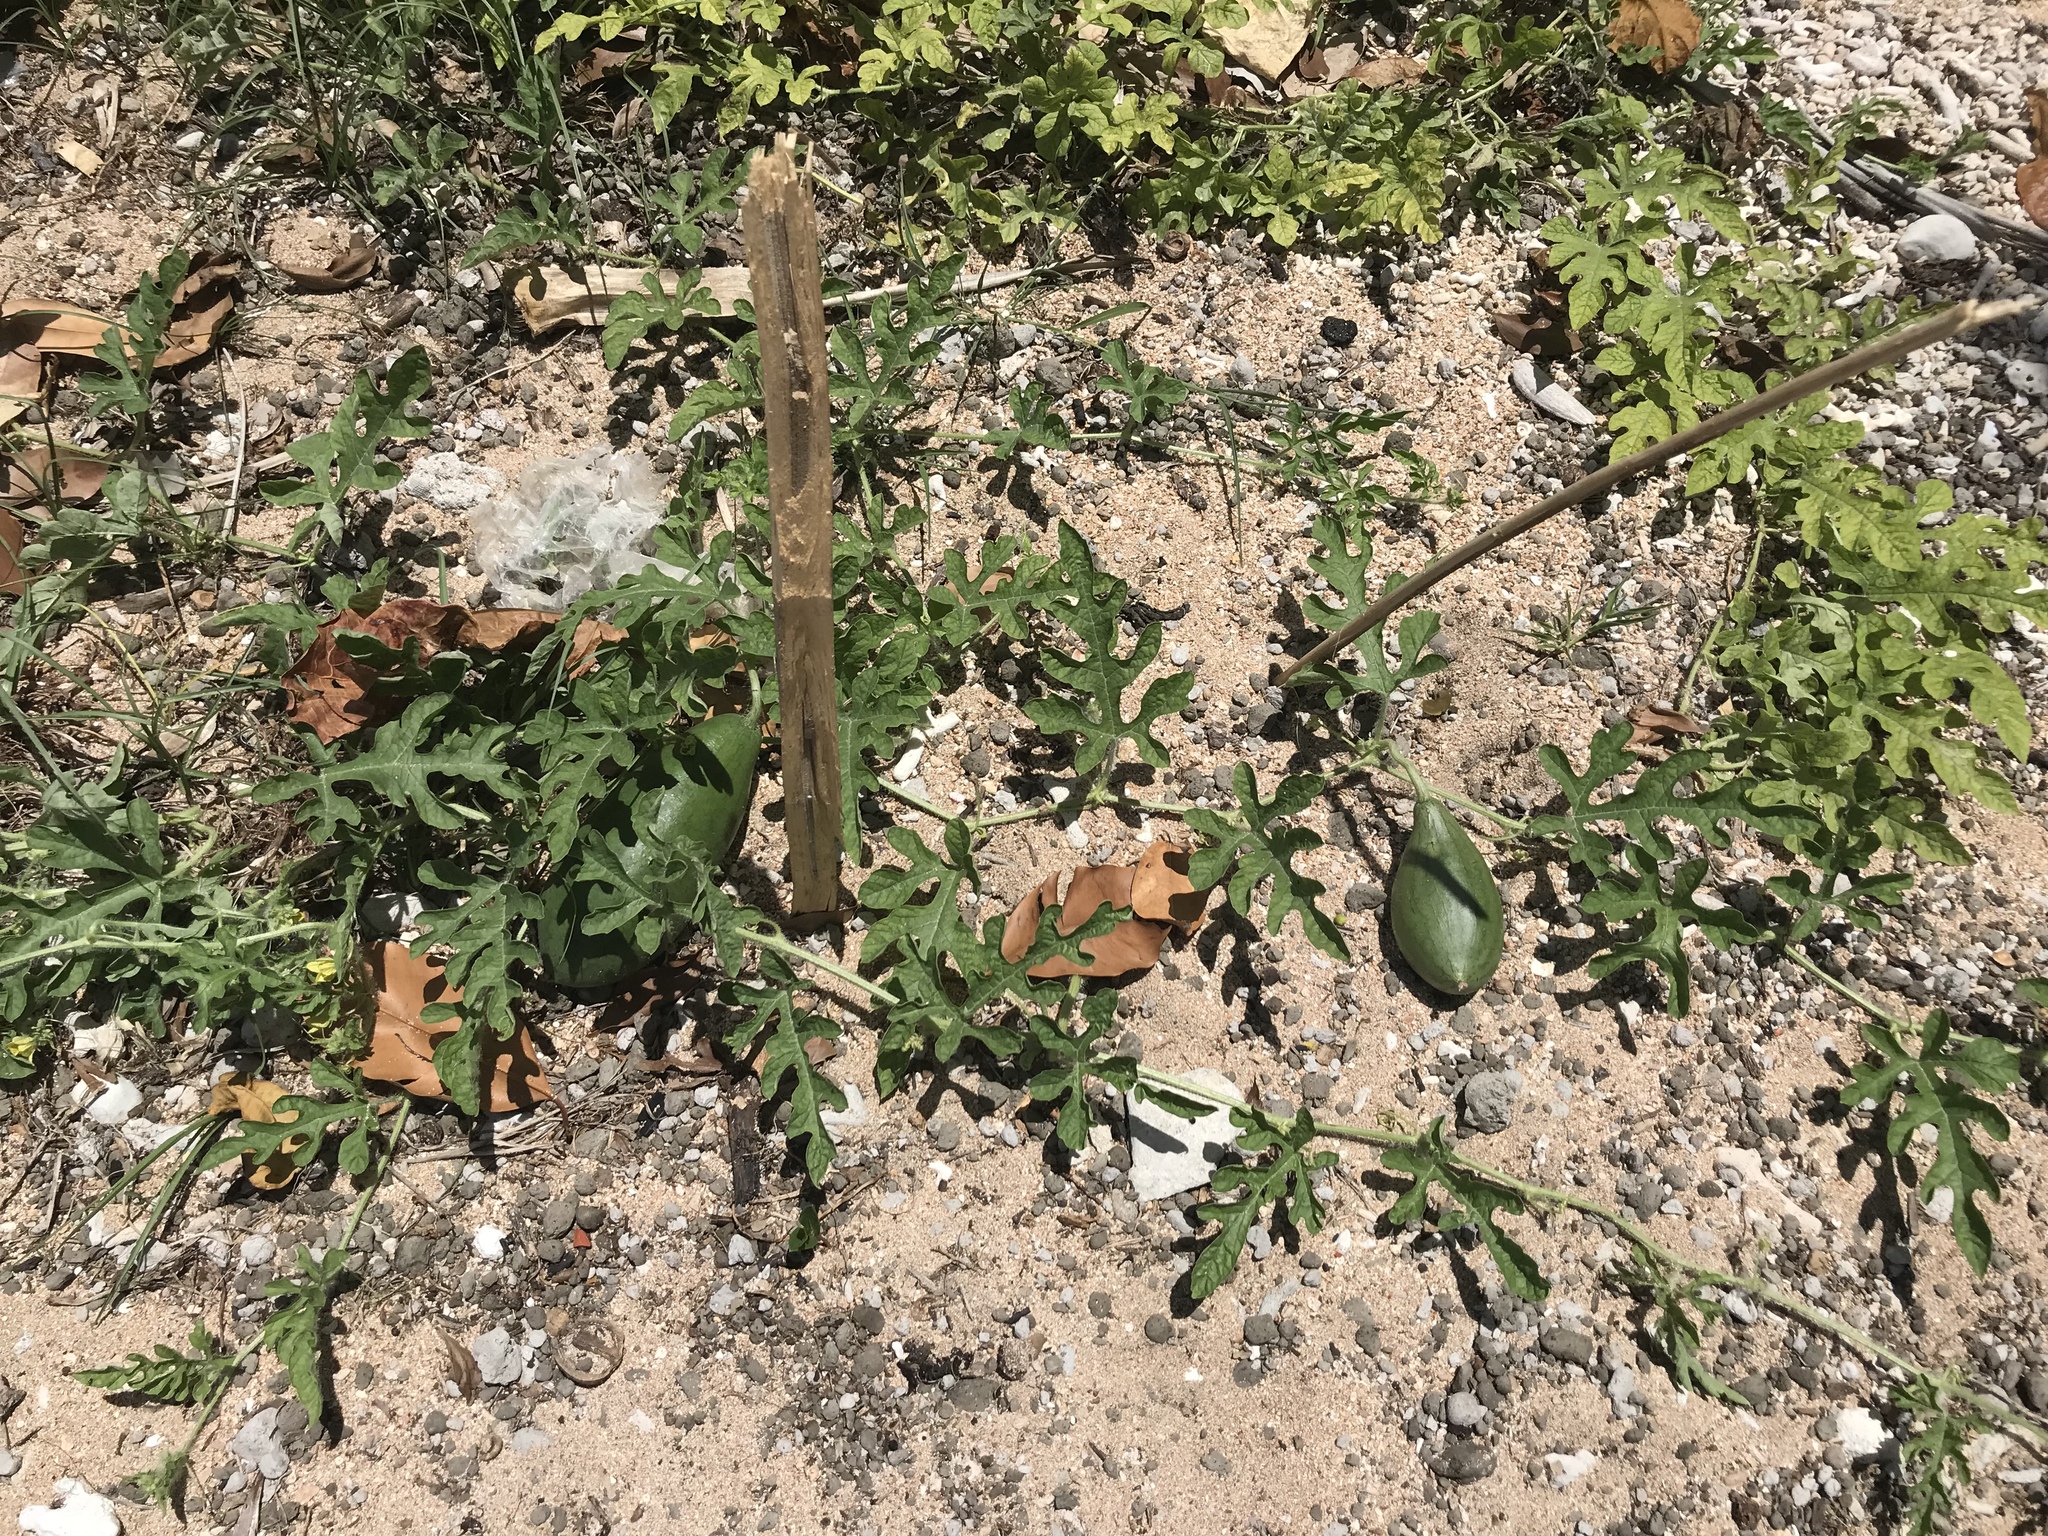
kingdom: Plantae
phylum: Tracheophyta
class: Magnoliopsida
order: Cucurbitales
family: Cucurbitaceae
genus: Citrullus
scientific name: Citrullus lanatus
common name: Watermelon
